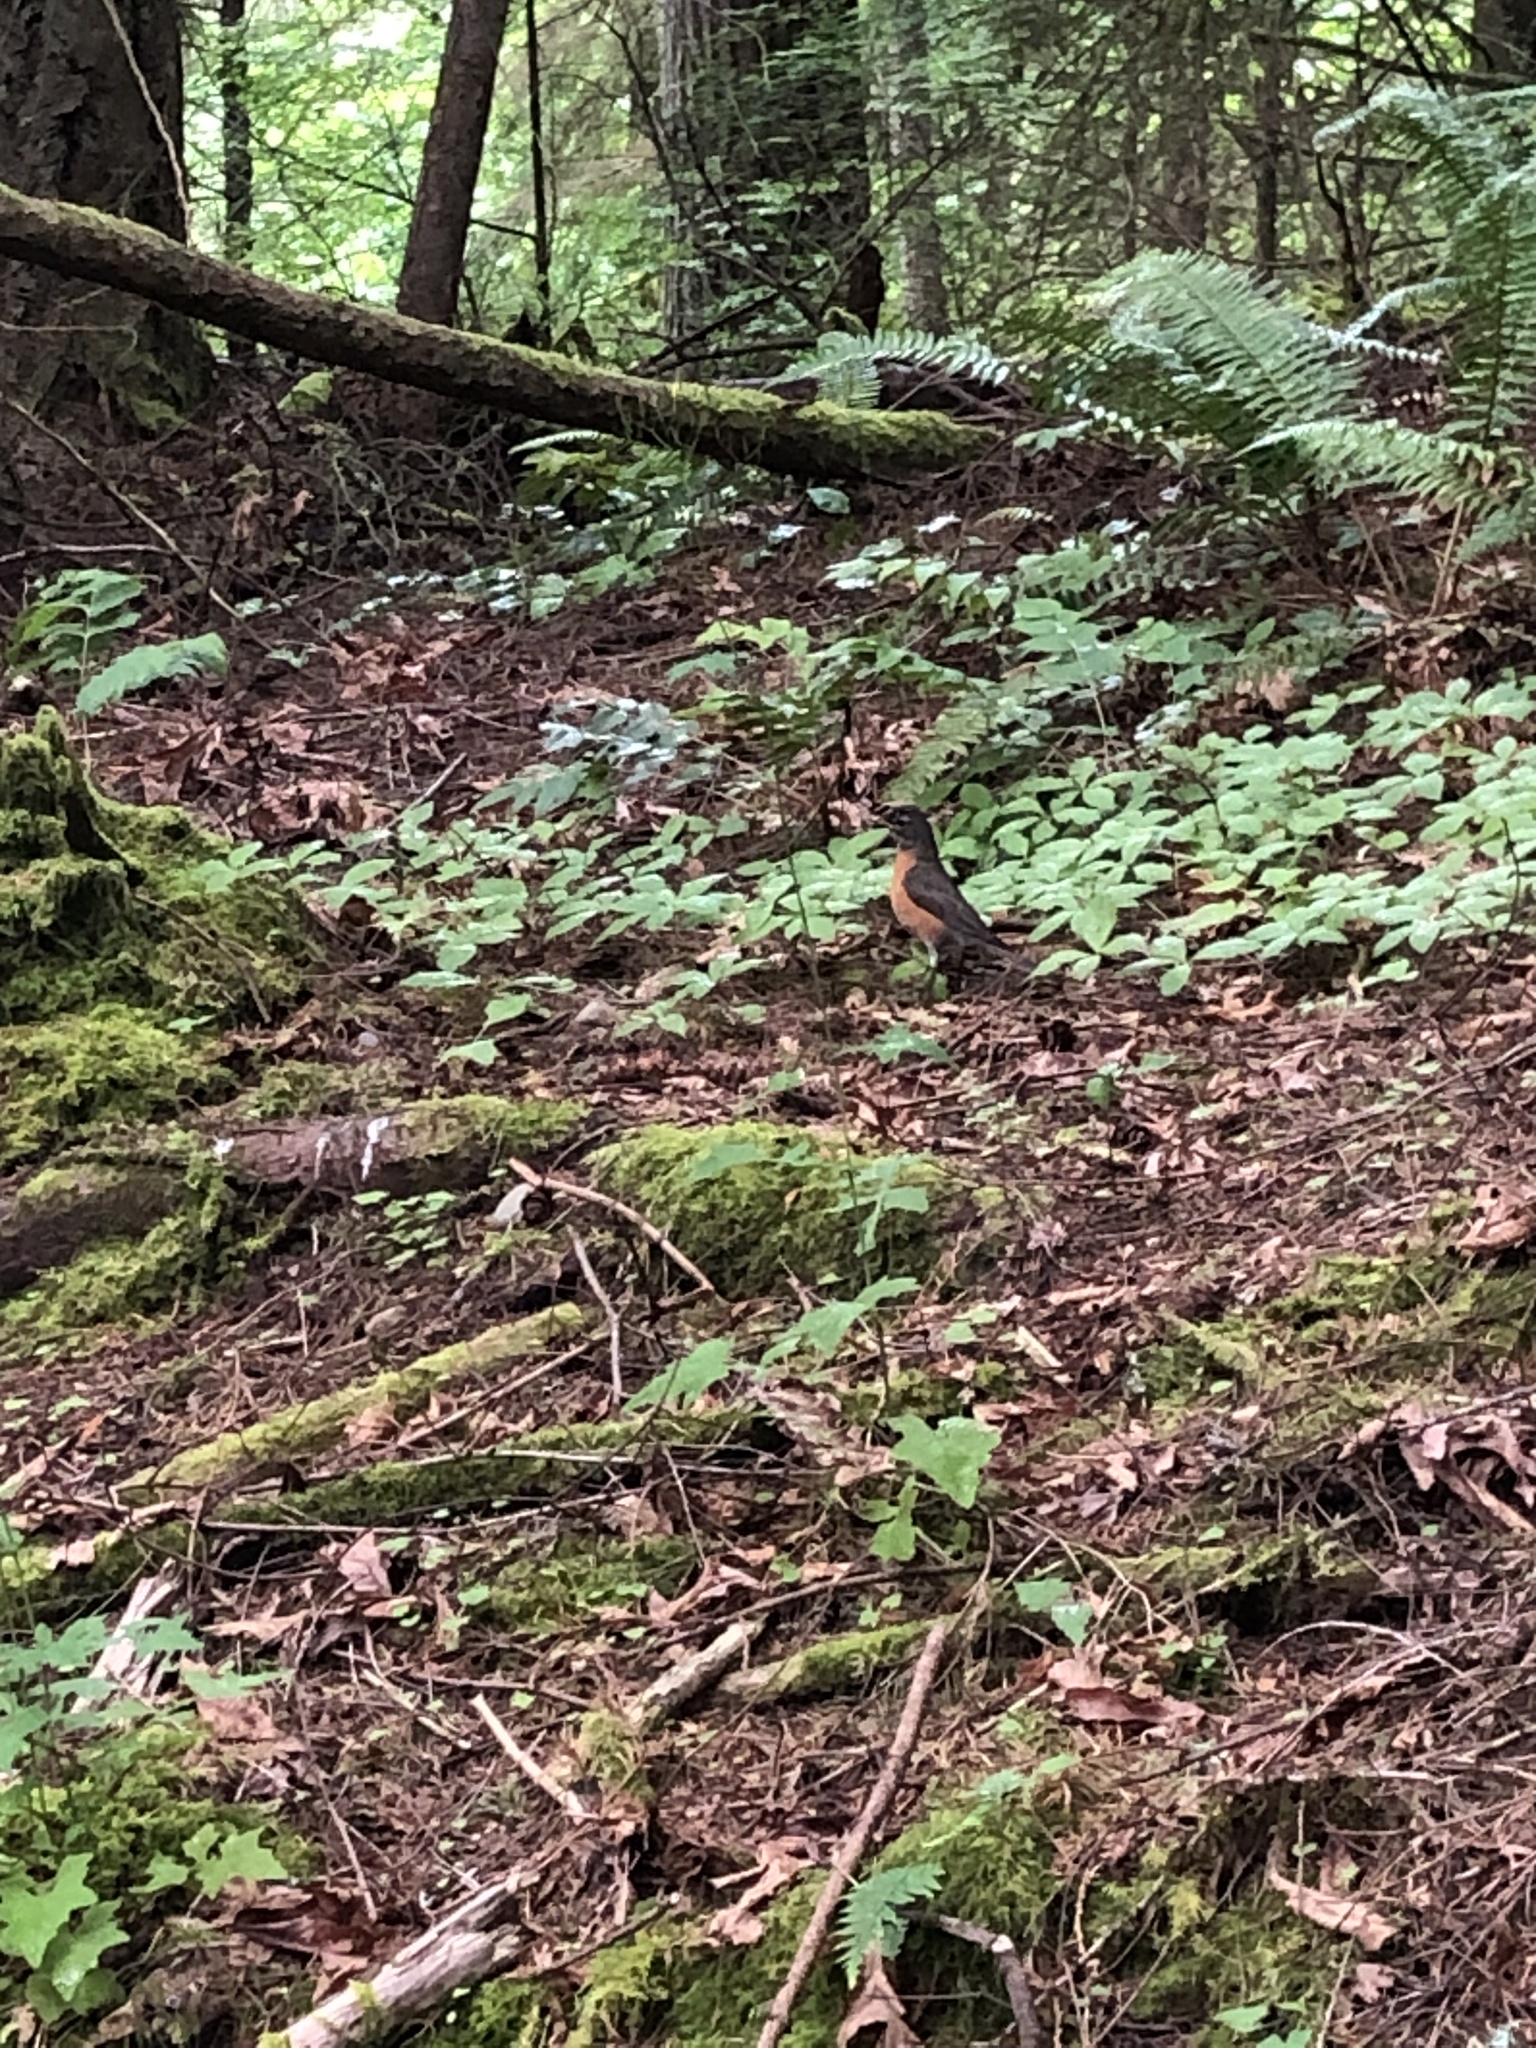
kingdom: Animalia
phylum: Chordata
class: Aves
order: Passeriformes
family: Turdidae
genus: Turdus
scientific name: Turdus migratorius
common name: American robin
